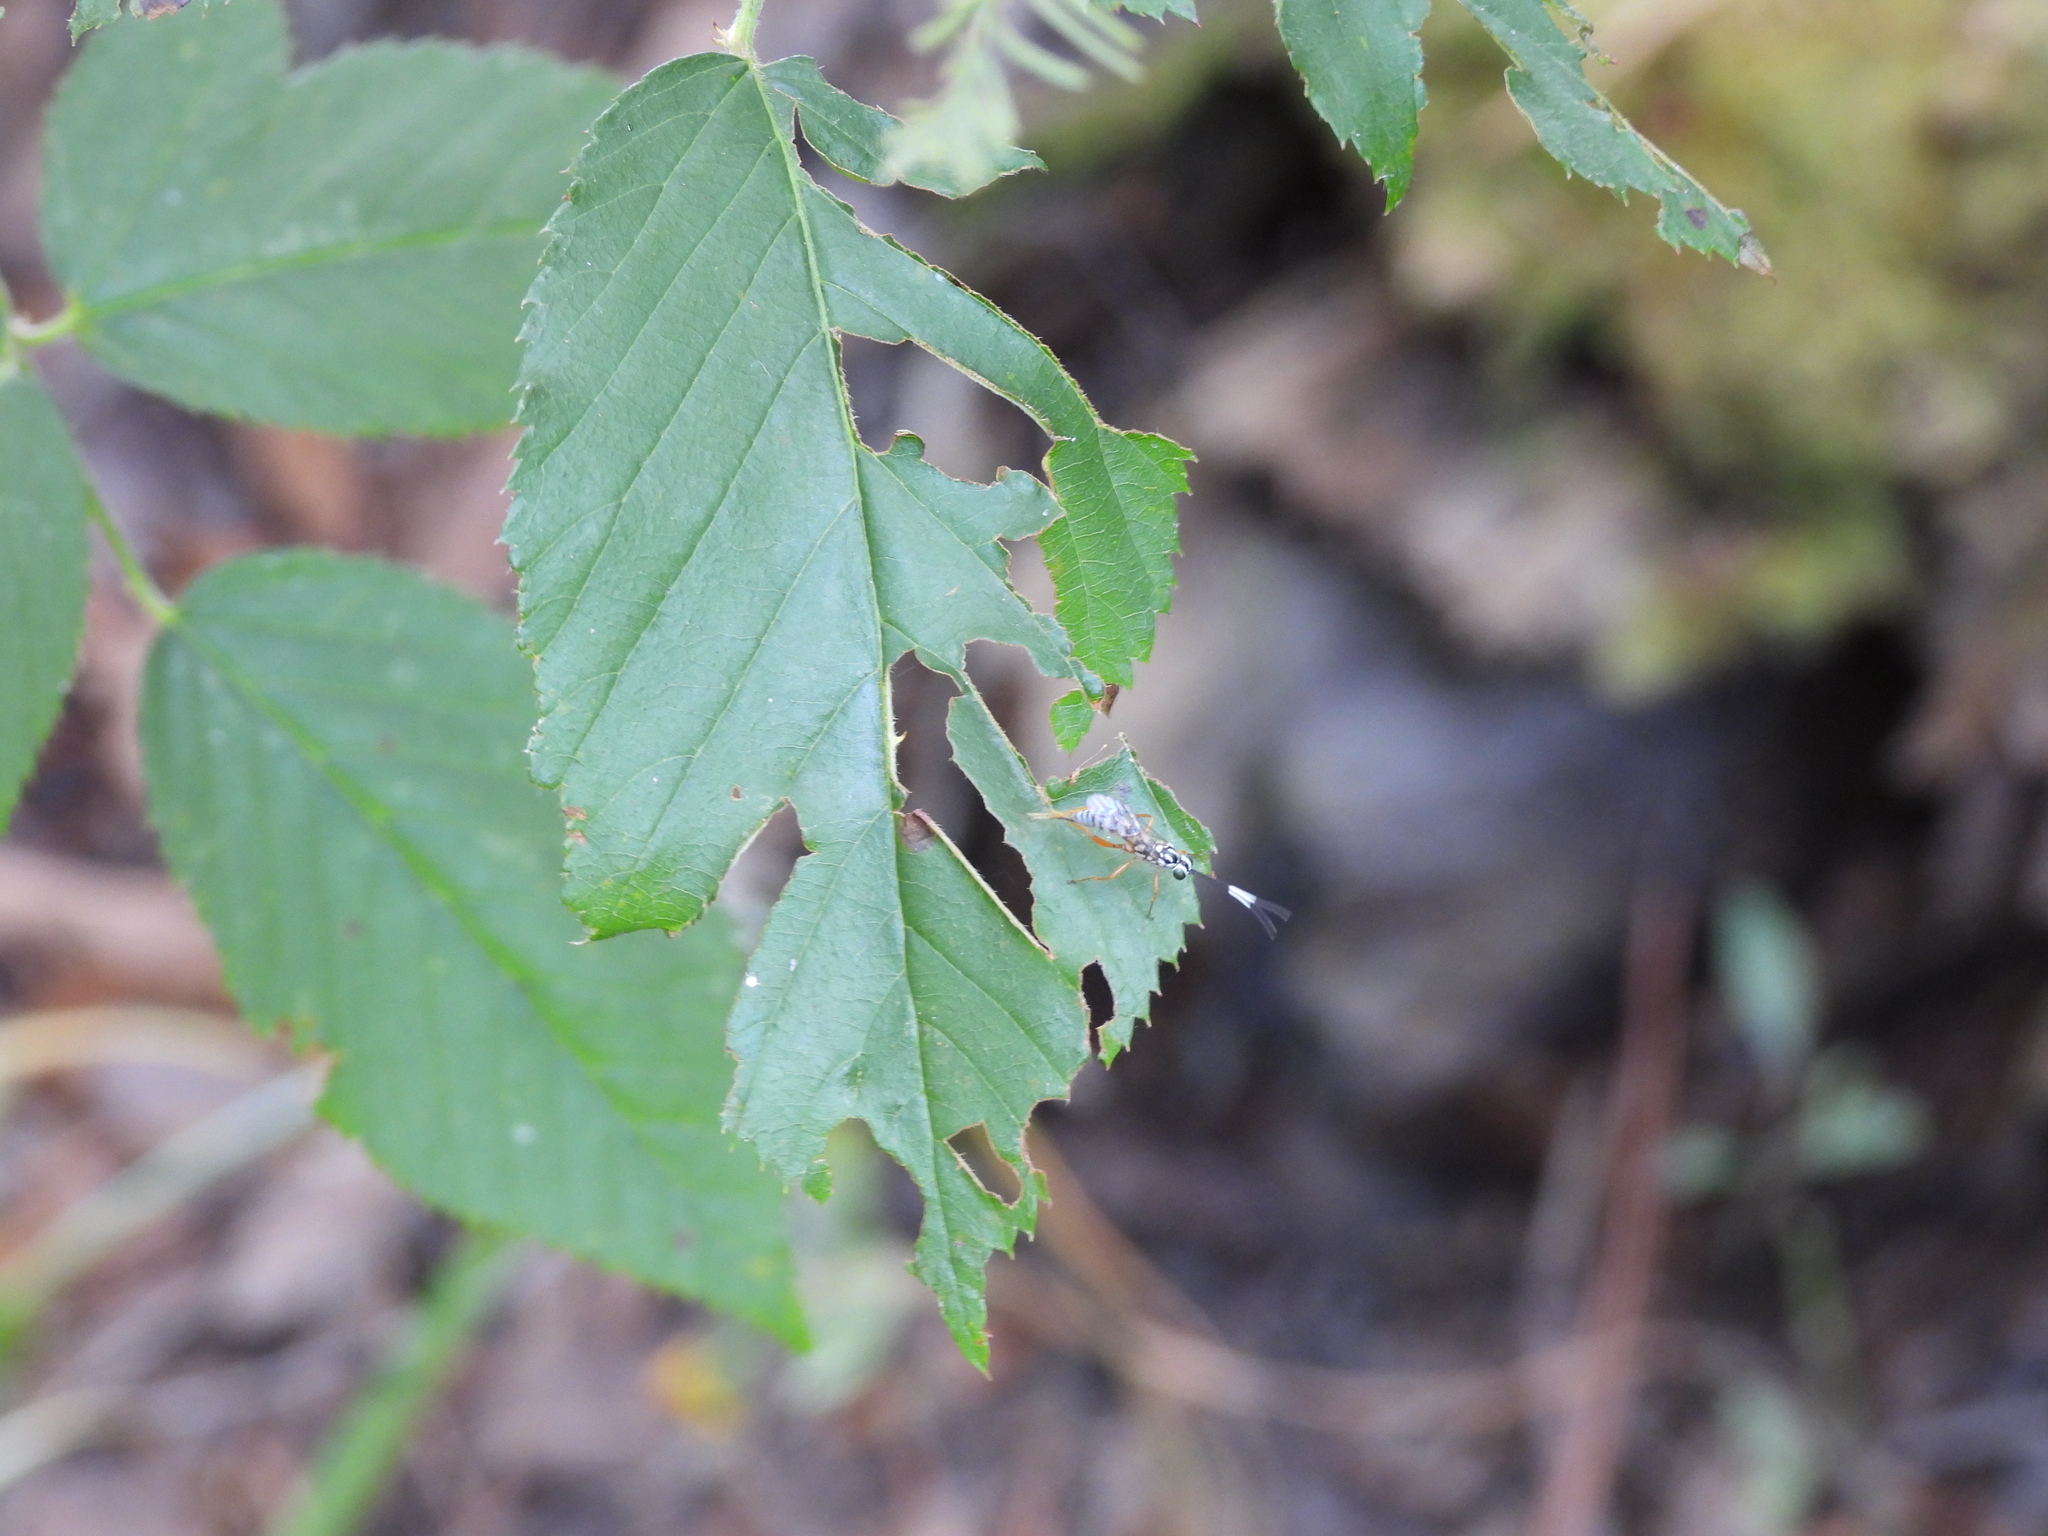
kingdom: Animalia
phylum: Arthropoda
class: Insecta
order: Hymenoptera
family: Ichneumonidae
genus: Lymeon
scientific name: Lymeon orbus
